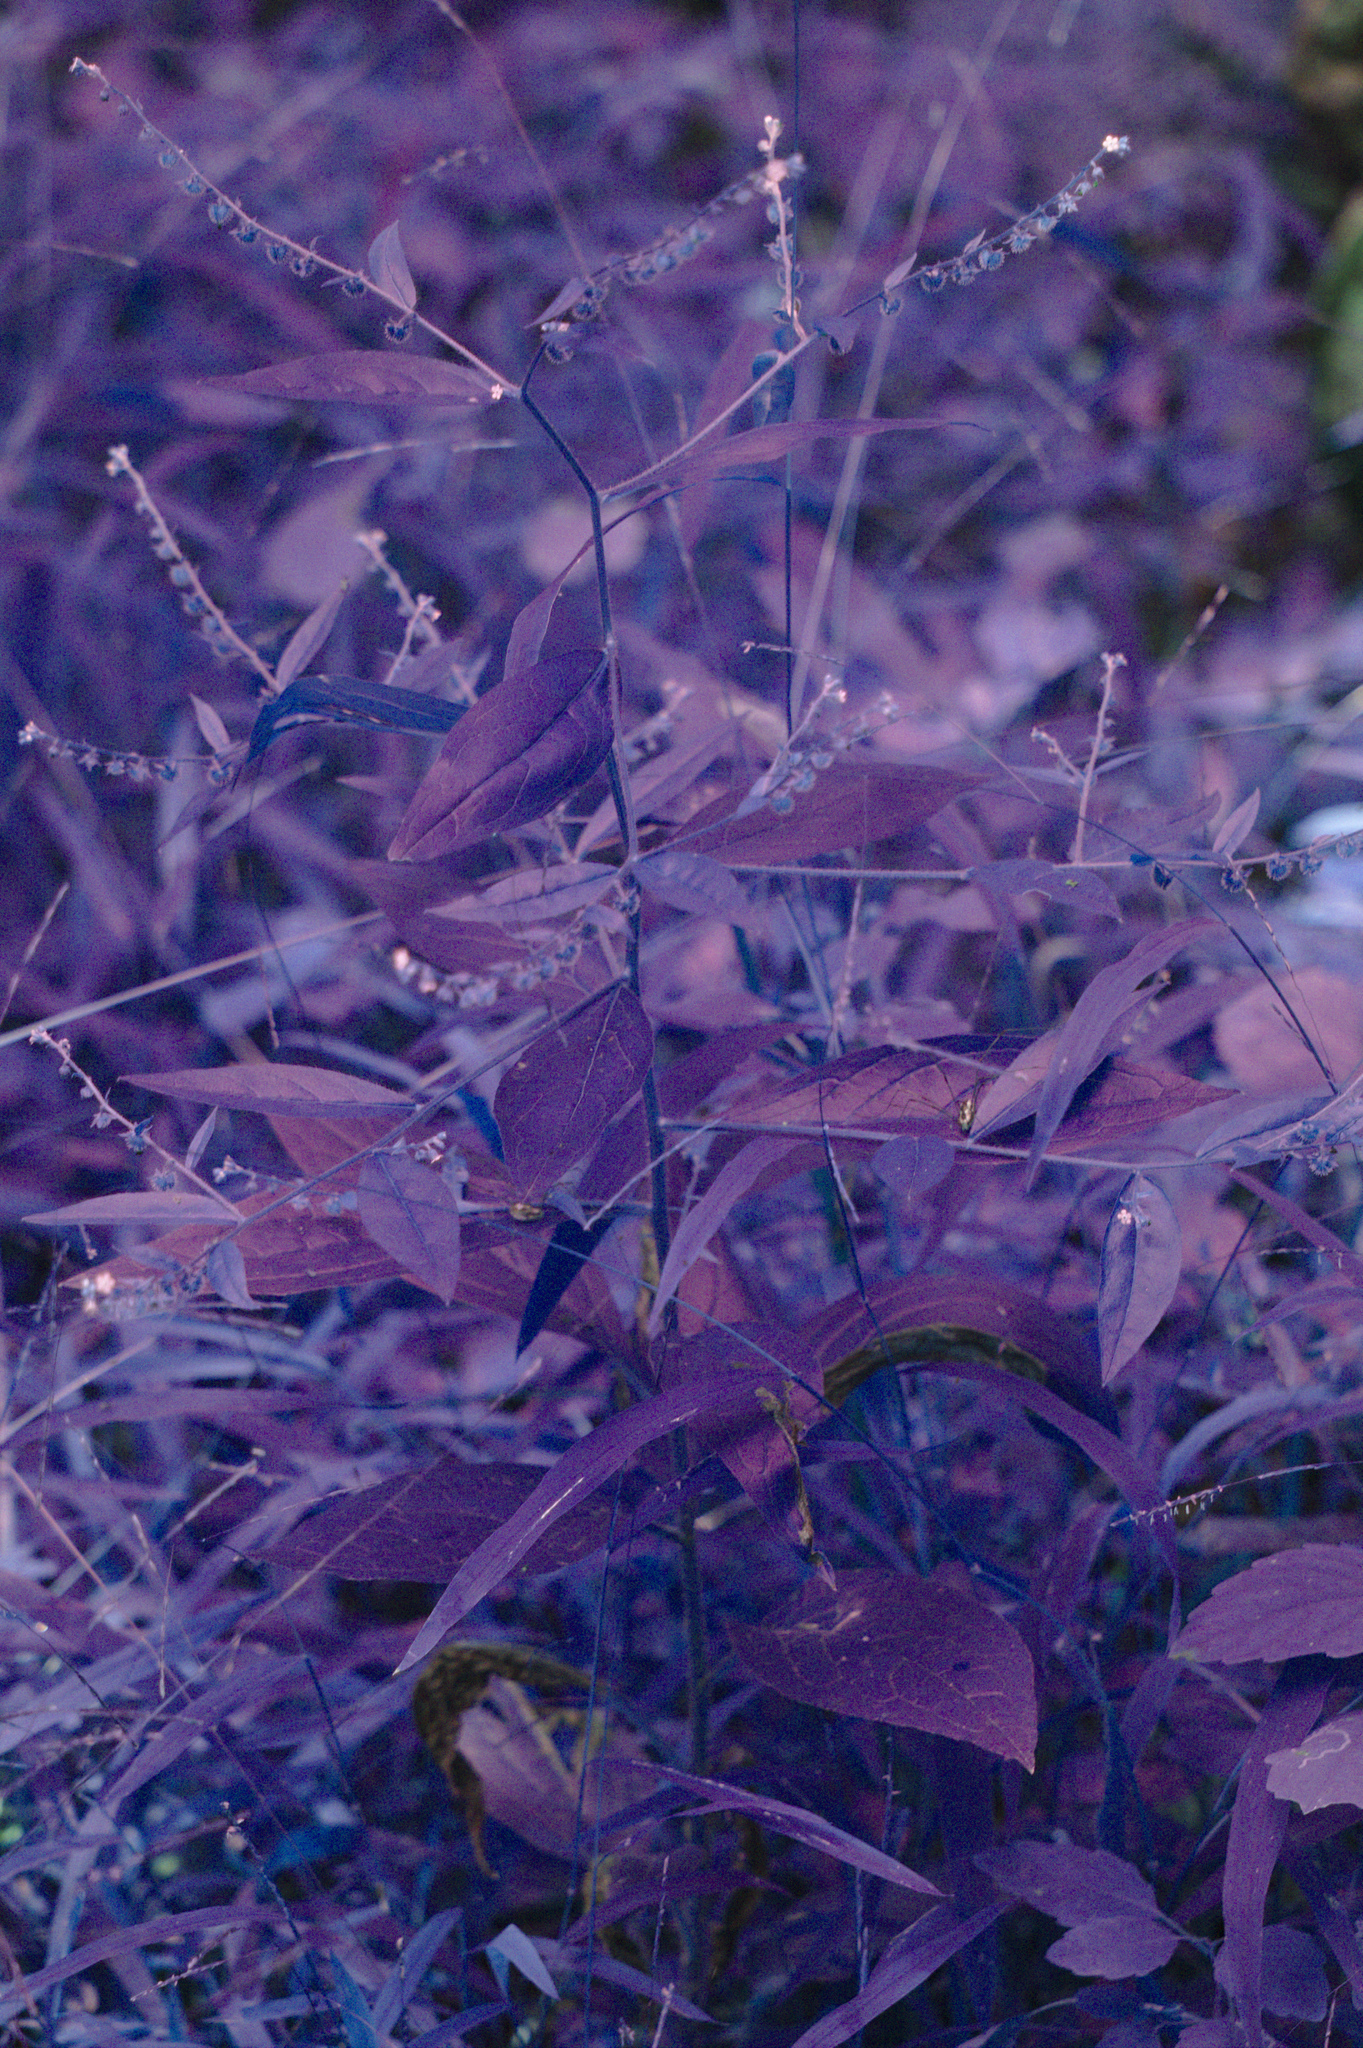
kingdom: Plantae
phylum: Tracheophyta
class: Magnoliopsida
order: Boraginales
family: Boraginaceae
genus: Hackelia
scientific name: Hackelia virginiana
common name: Beggar's-lice
